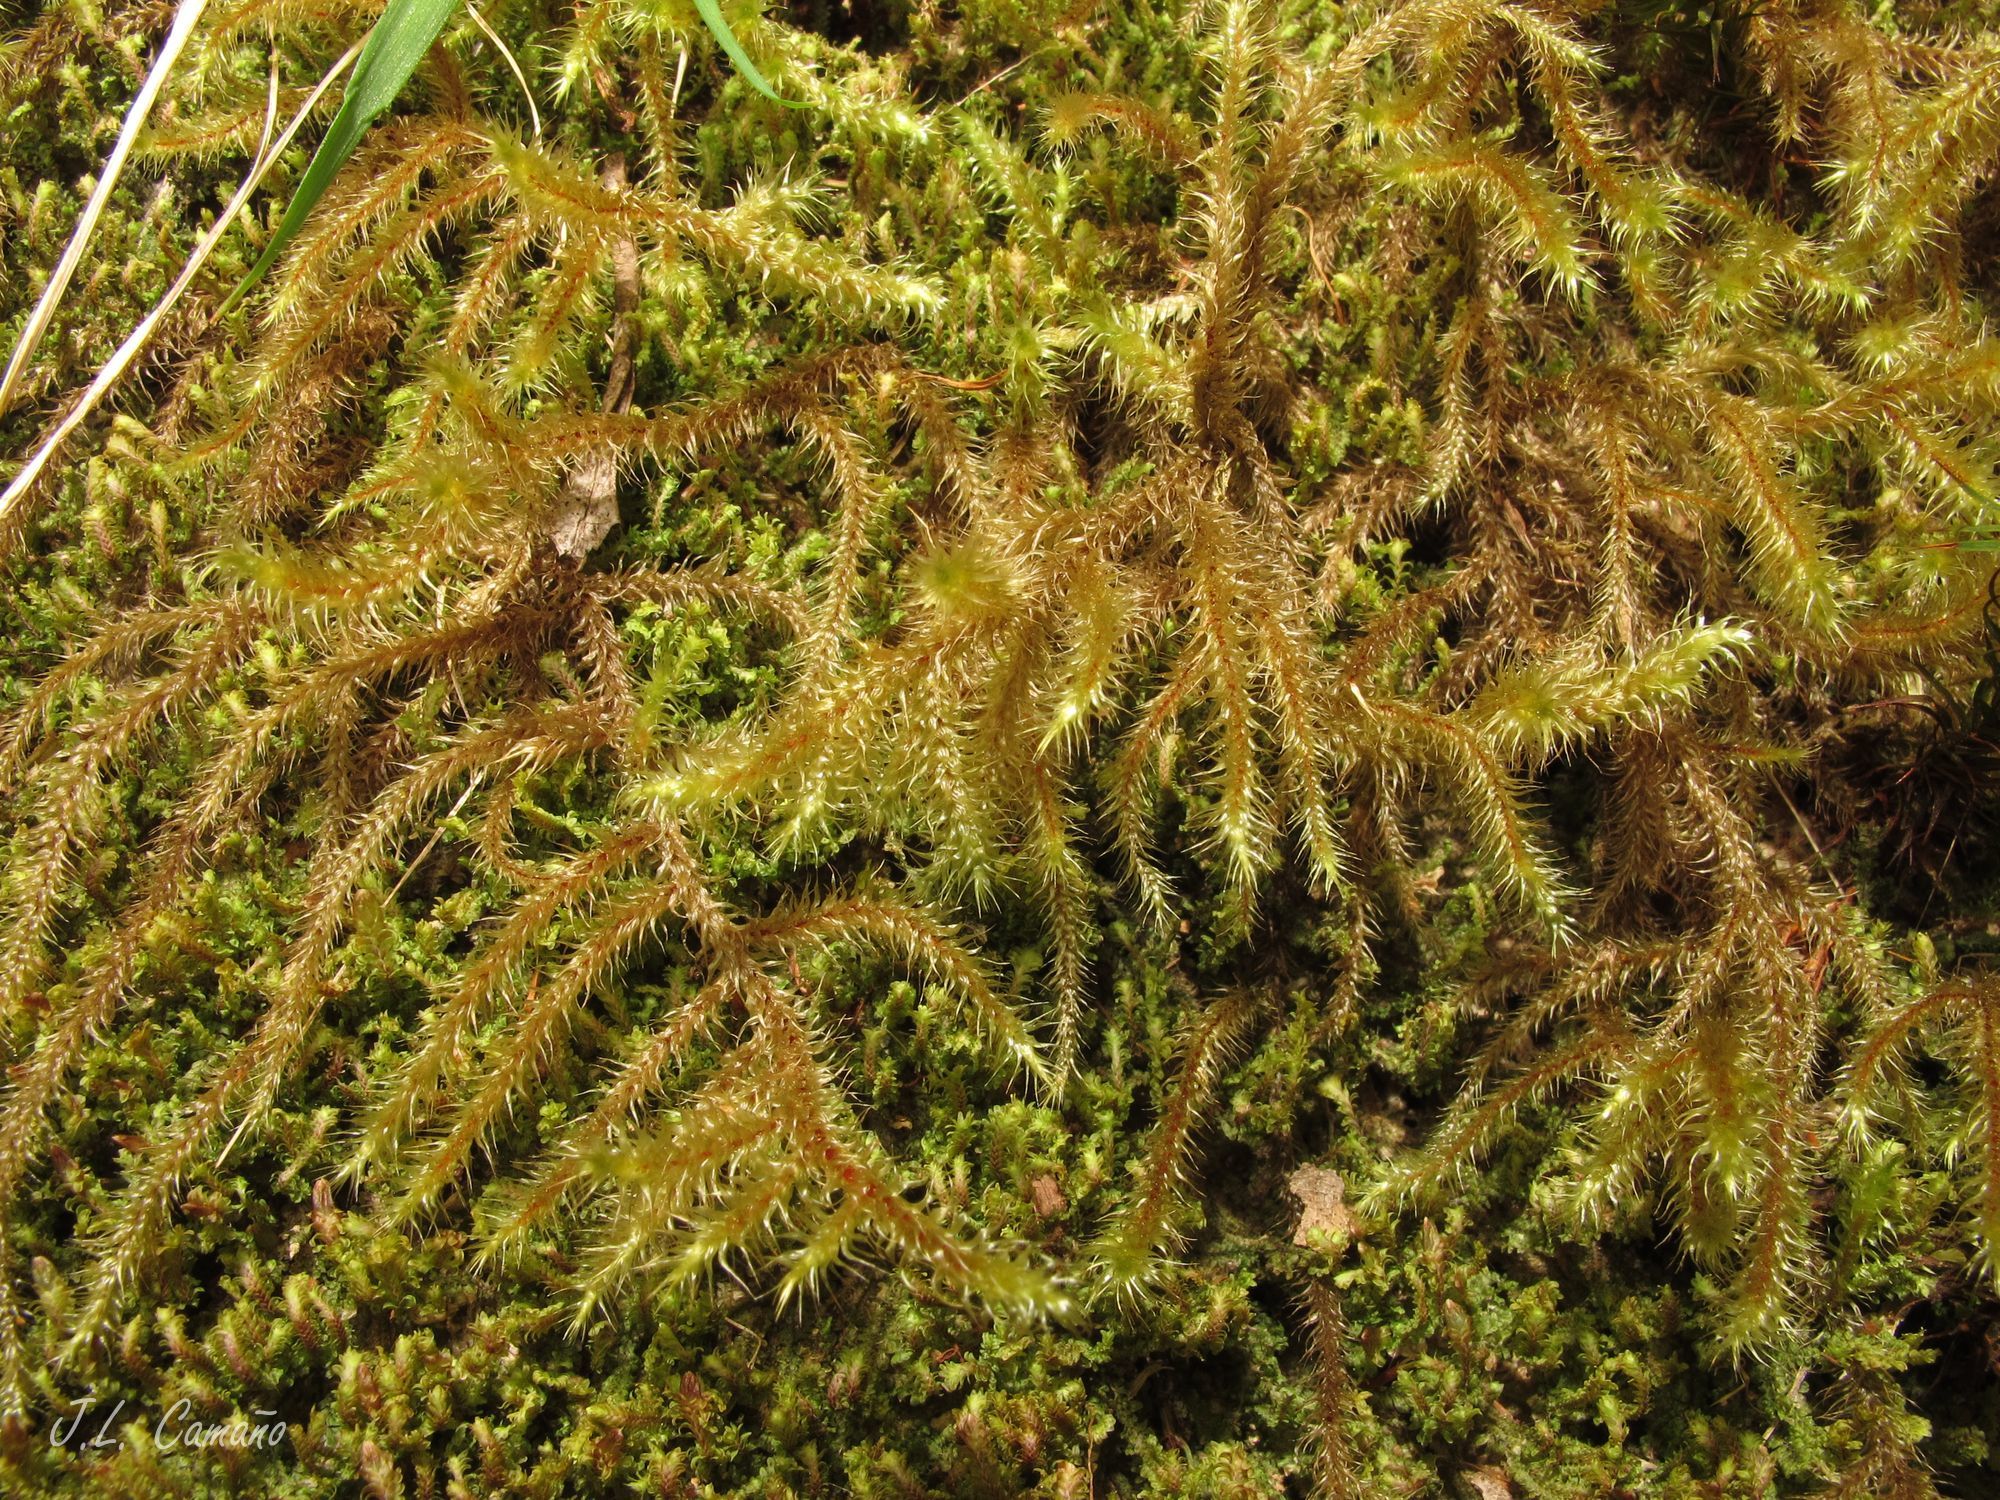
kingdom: Plantae
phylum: Bryophyta
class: Bryopsida
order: Hypnales
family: Hylocomiaceae
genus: Rhytidiadelphus
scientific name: Rhytidiadelphus loreus
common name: Lanky moss
